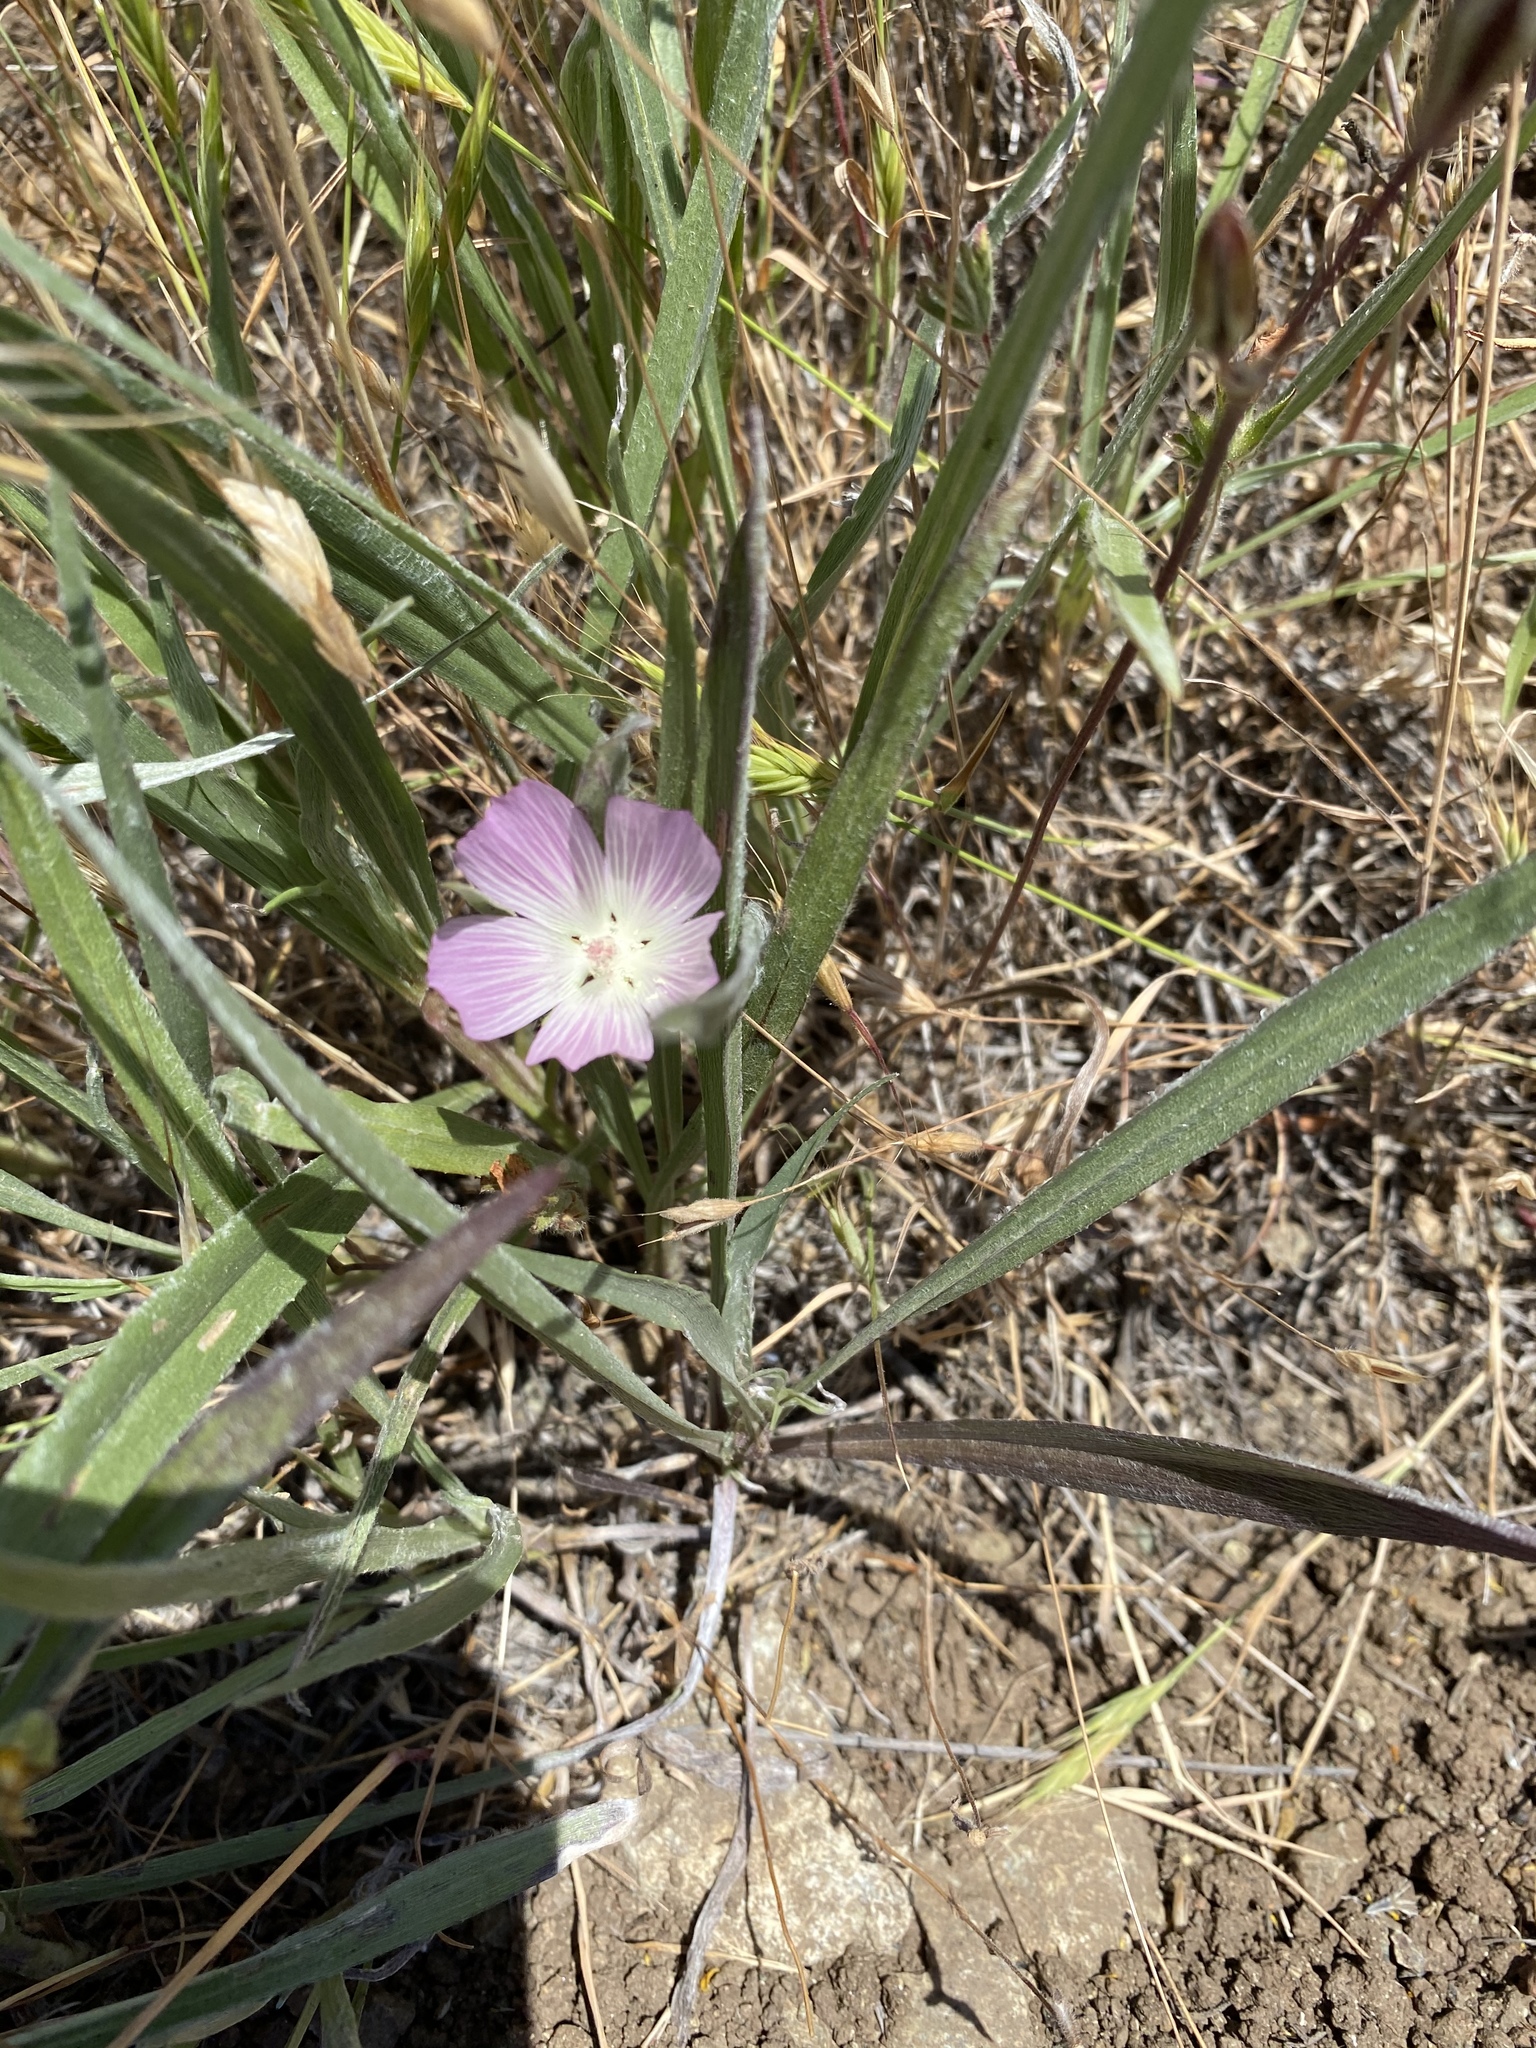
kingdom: Plantae
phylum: Tracheophyta
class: Magnoliopsida
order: Malvales
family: Malvaceae
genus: Sidalcea
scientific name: Sidalcea diploscypha
